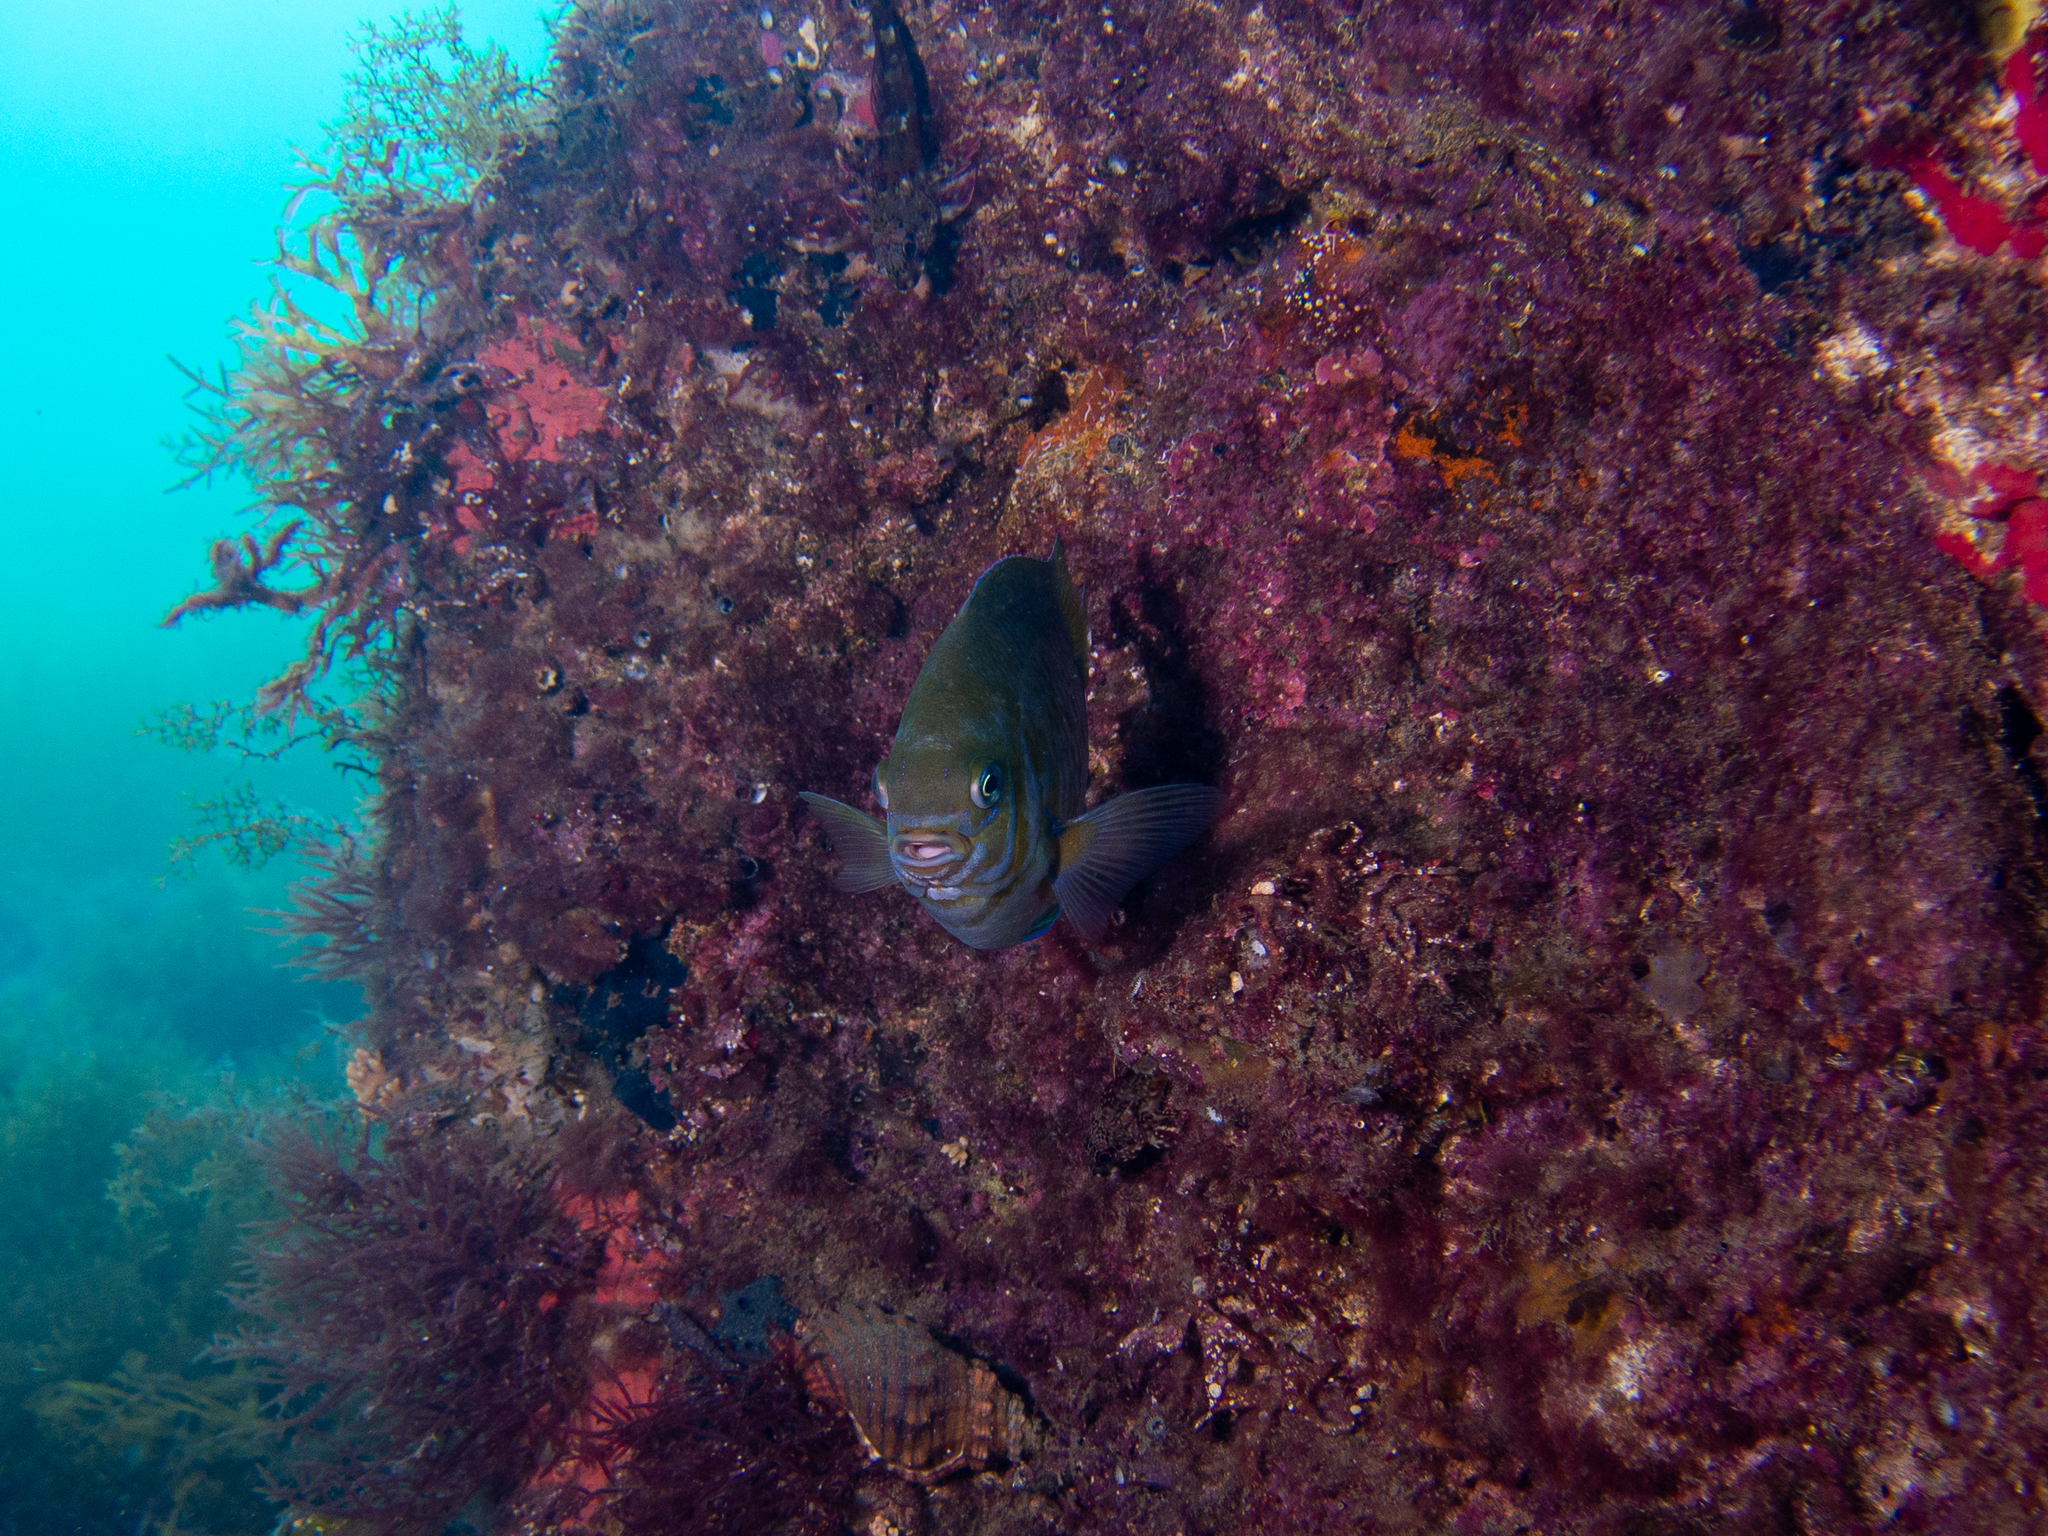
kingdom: Animalia
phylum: Chordata
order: Perciformes
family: Pomacentridae
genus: Parma
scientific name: Parma victoriae
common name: Rock perch
